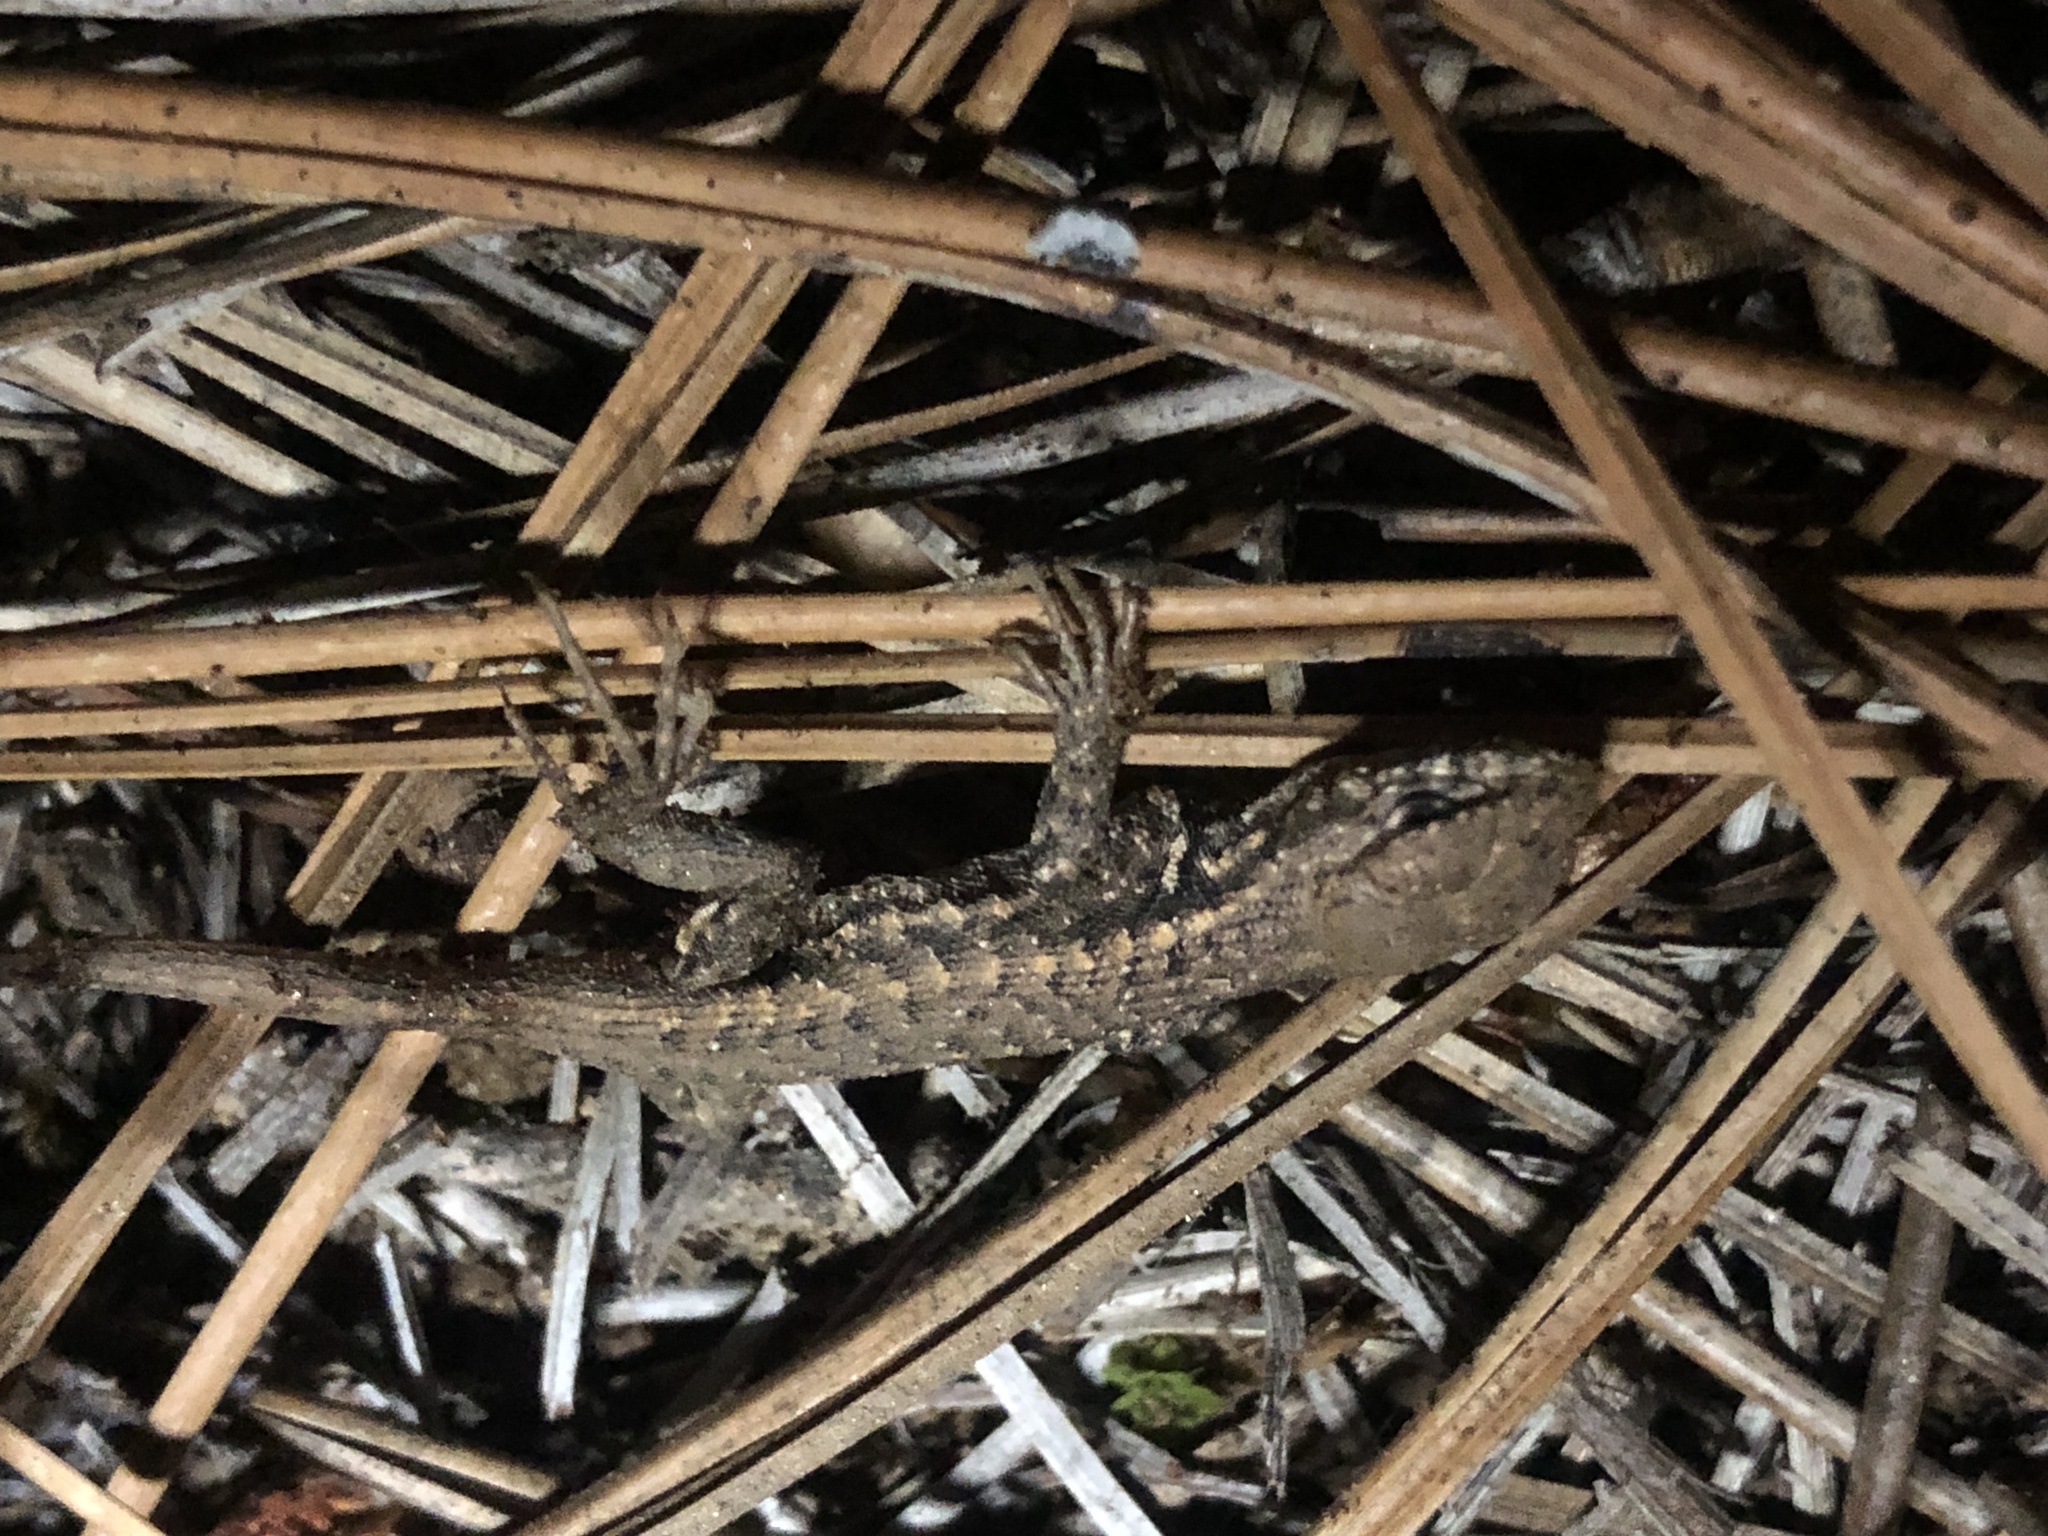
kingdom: Animalia
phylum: Chordata
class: Squamata
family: Phrynosomatidae
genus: Sceloporus
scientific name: Sceloporus graciosus
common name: Sagebrush lizard
